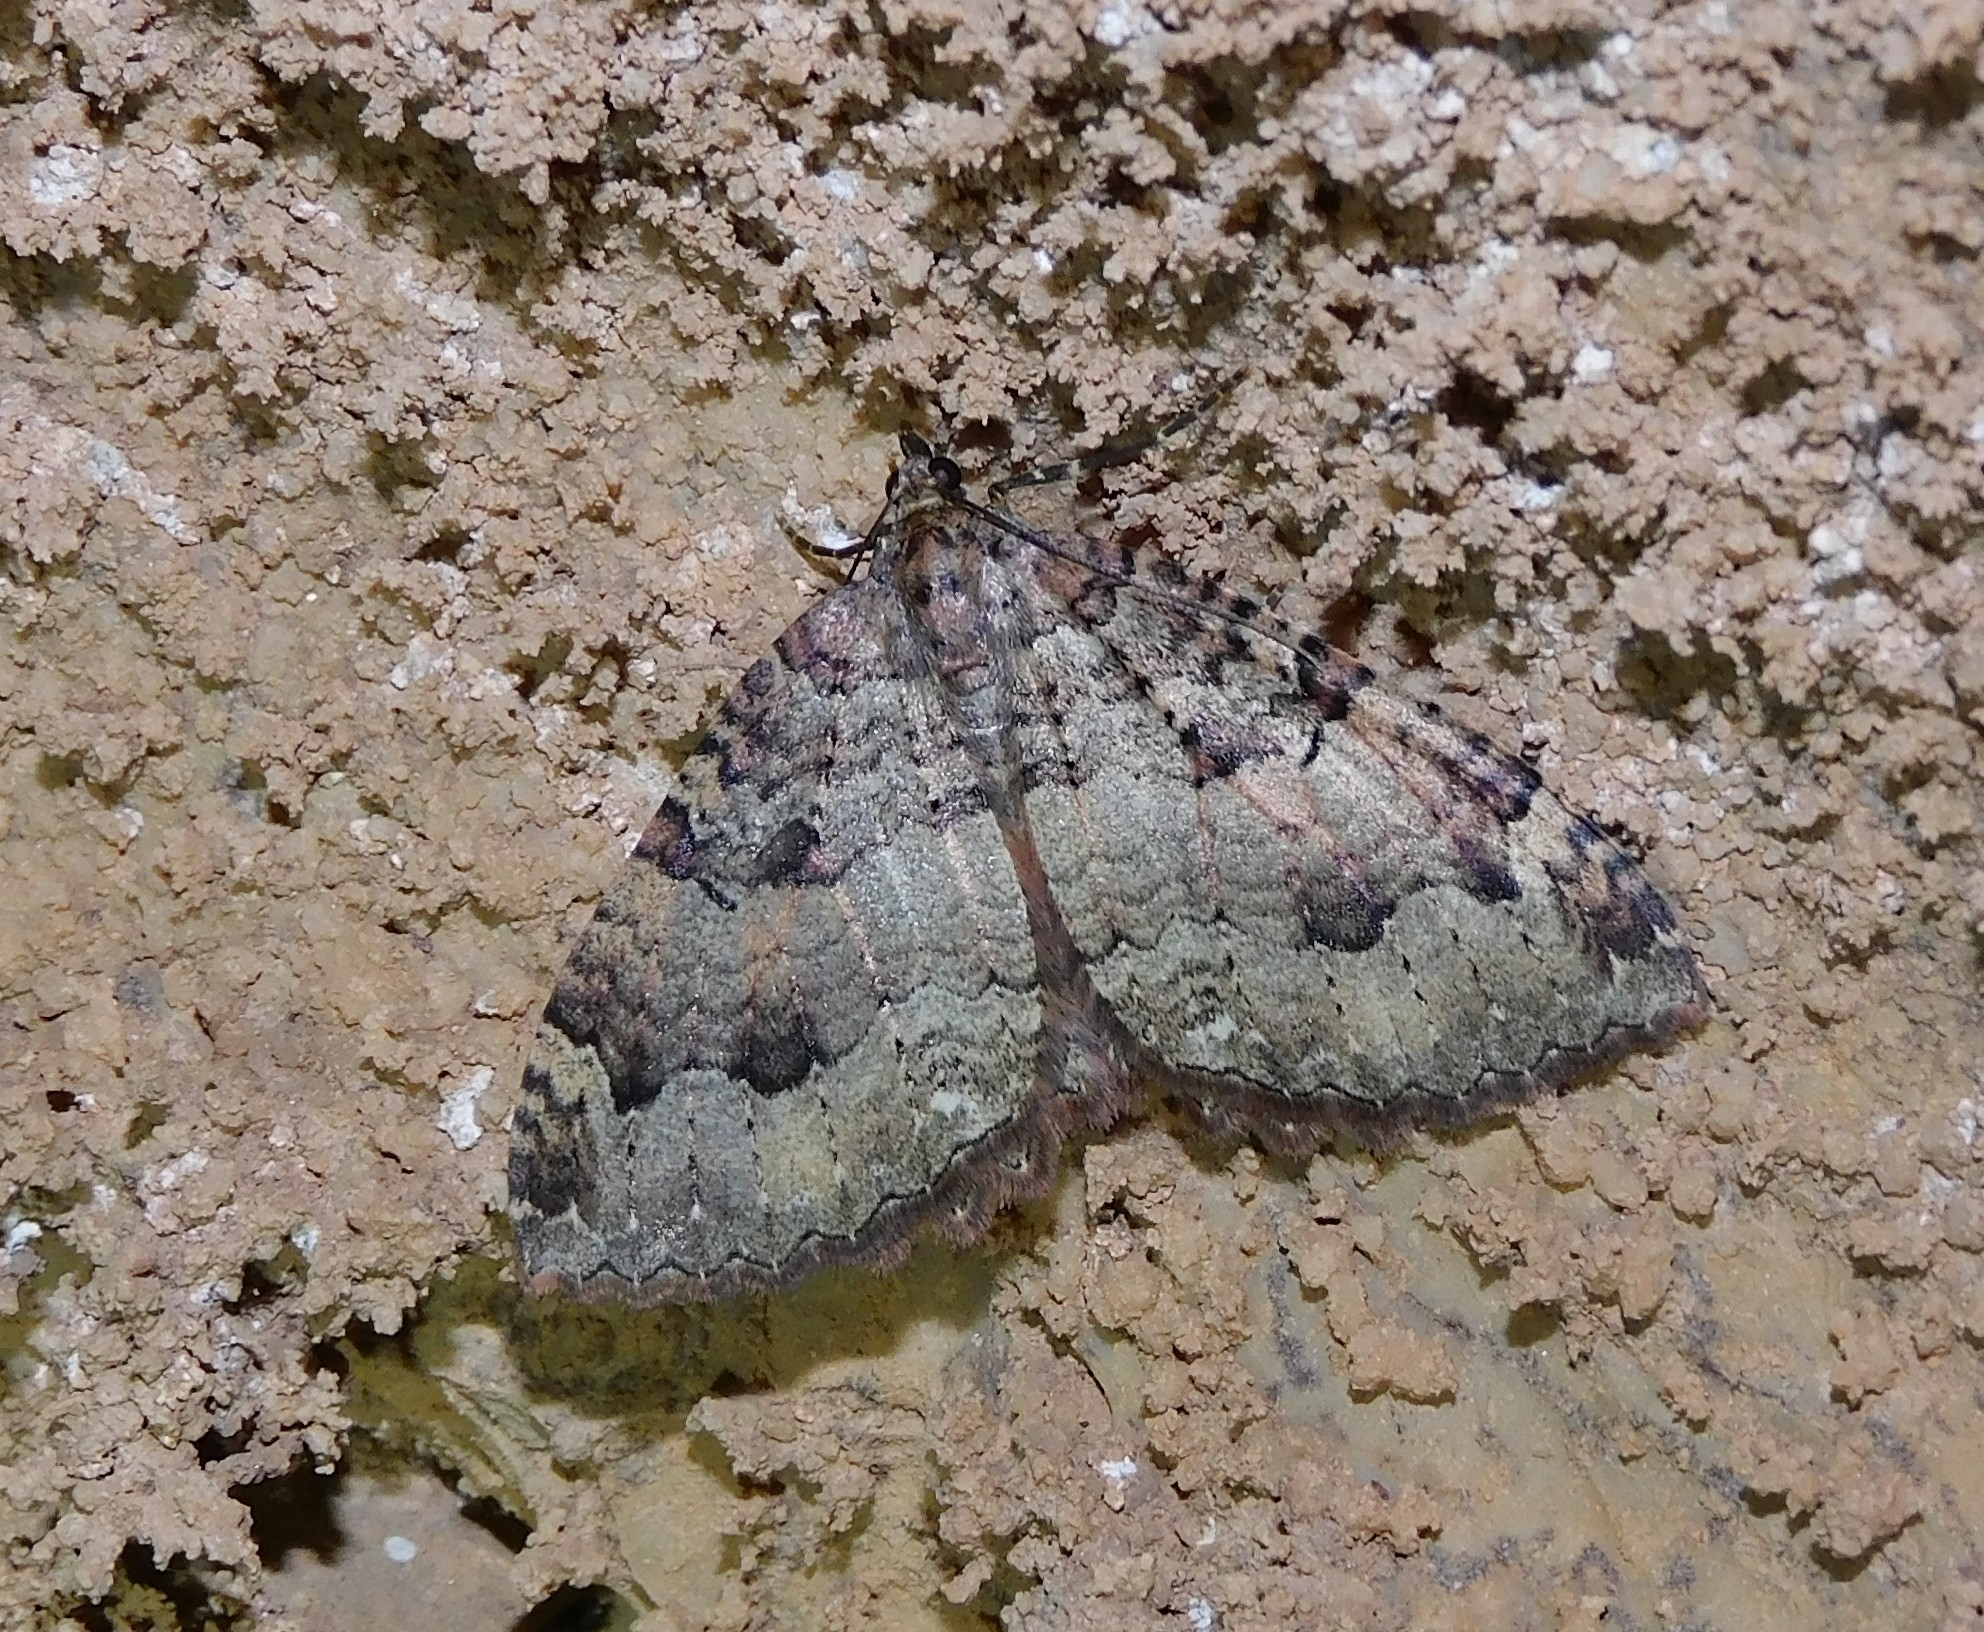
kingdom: Animalia
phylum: Arthropoda
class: Insecta
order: Lepidoptera
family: Geometridae
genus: Triphosa
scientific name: Triphosa dubitata
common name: Tissue
